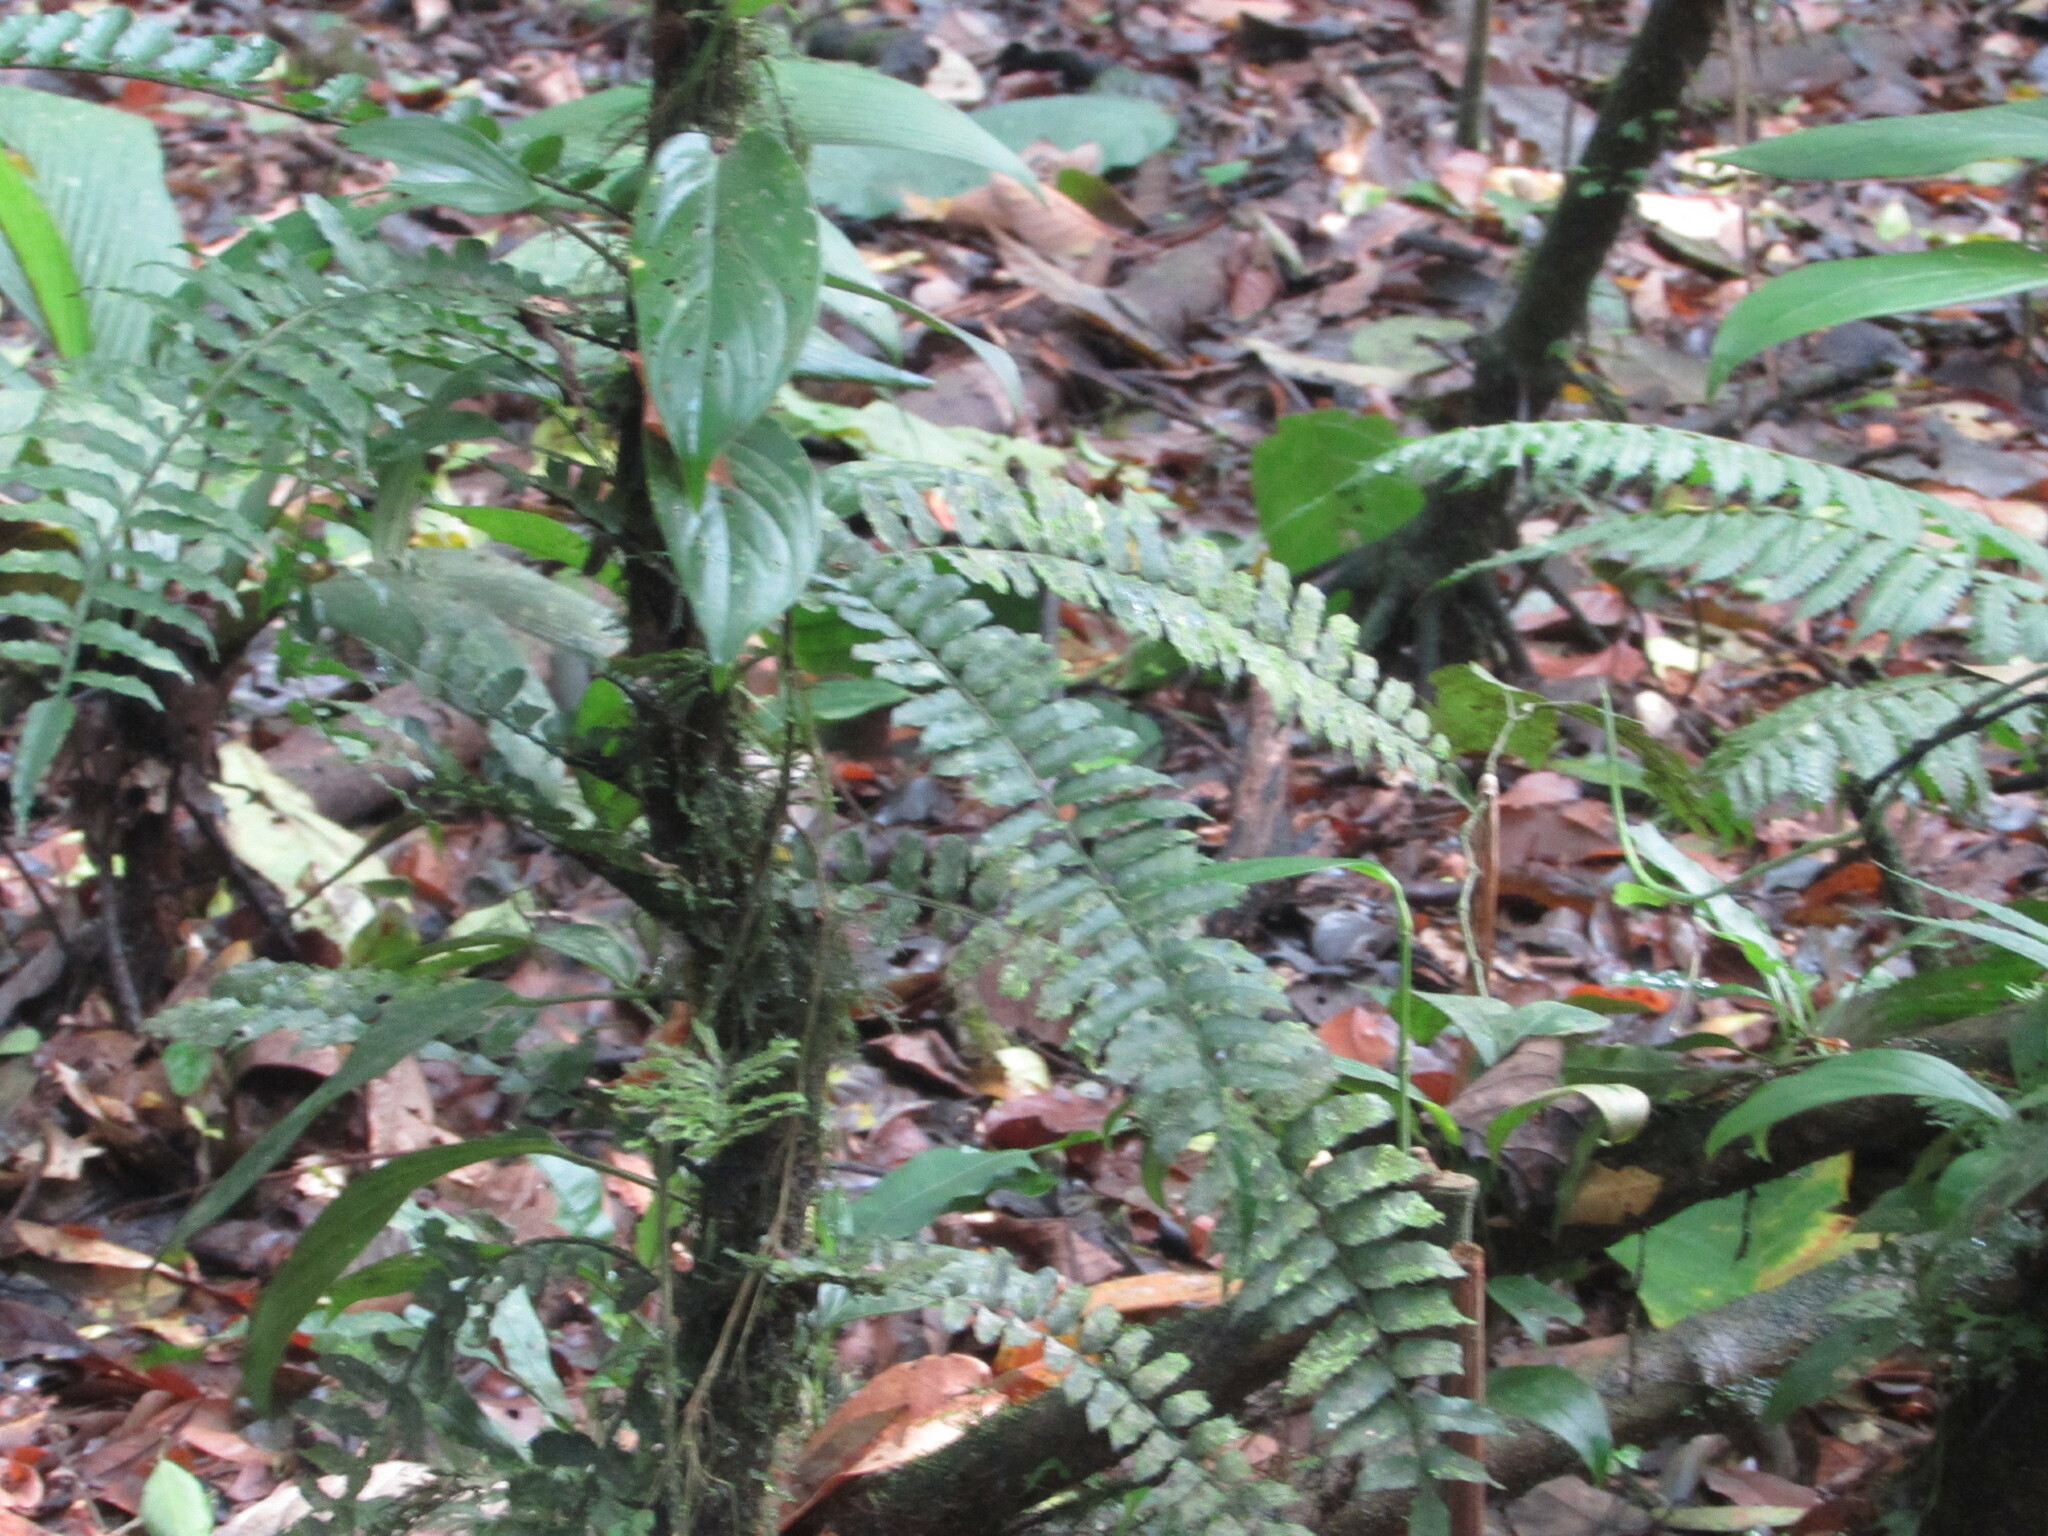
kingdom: Plantae
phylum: Tracheophyta
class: Polypodiopsida
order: Polypodiales
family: Lomariopsidaceae
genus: Lomariopsis
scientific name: Lomariopsis vestita
